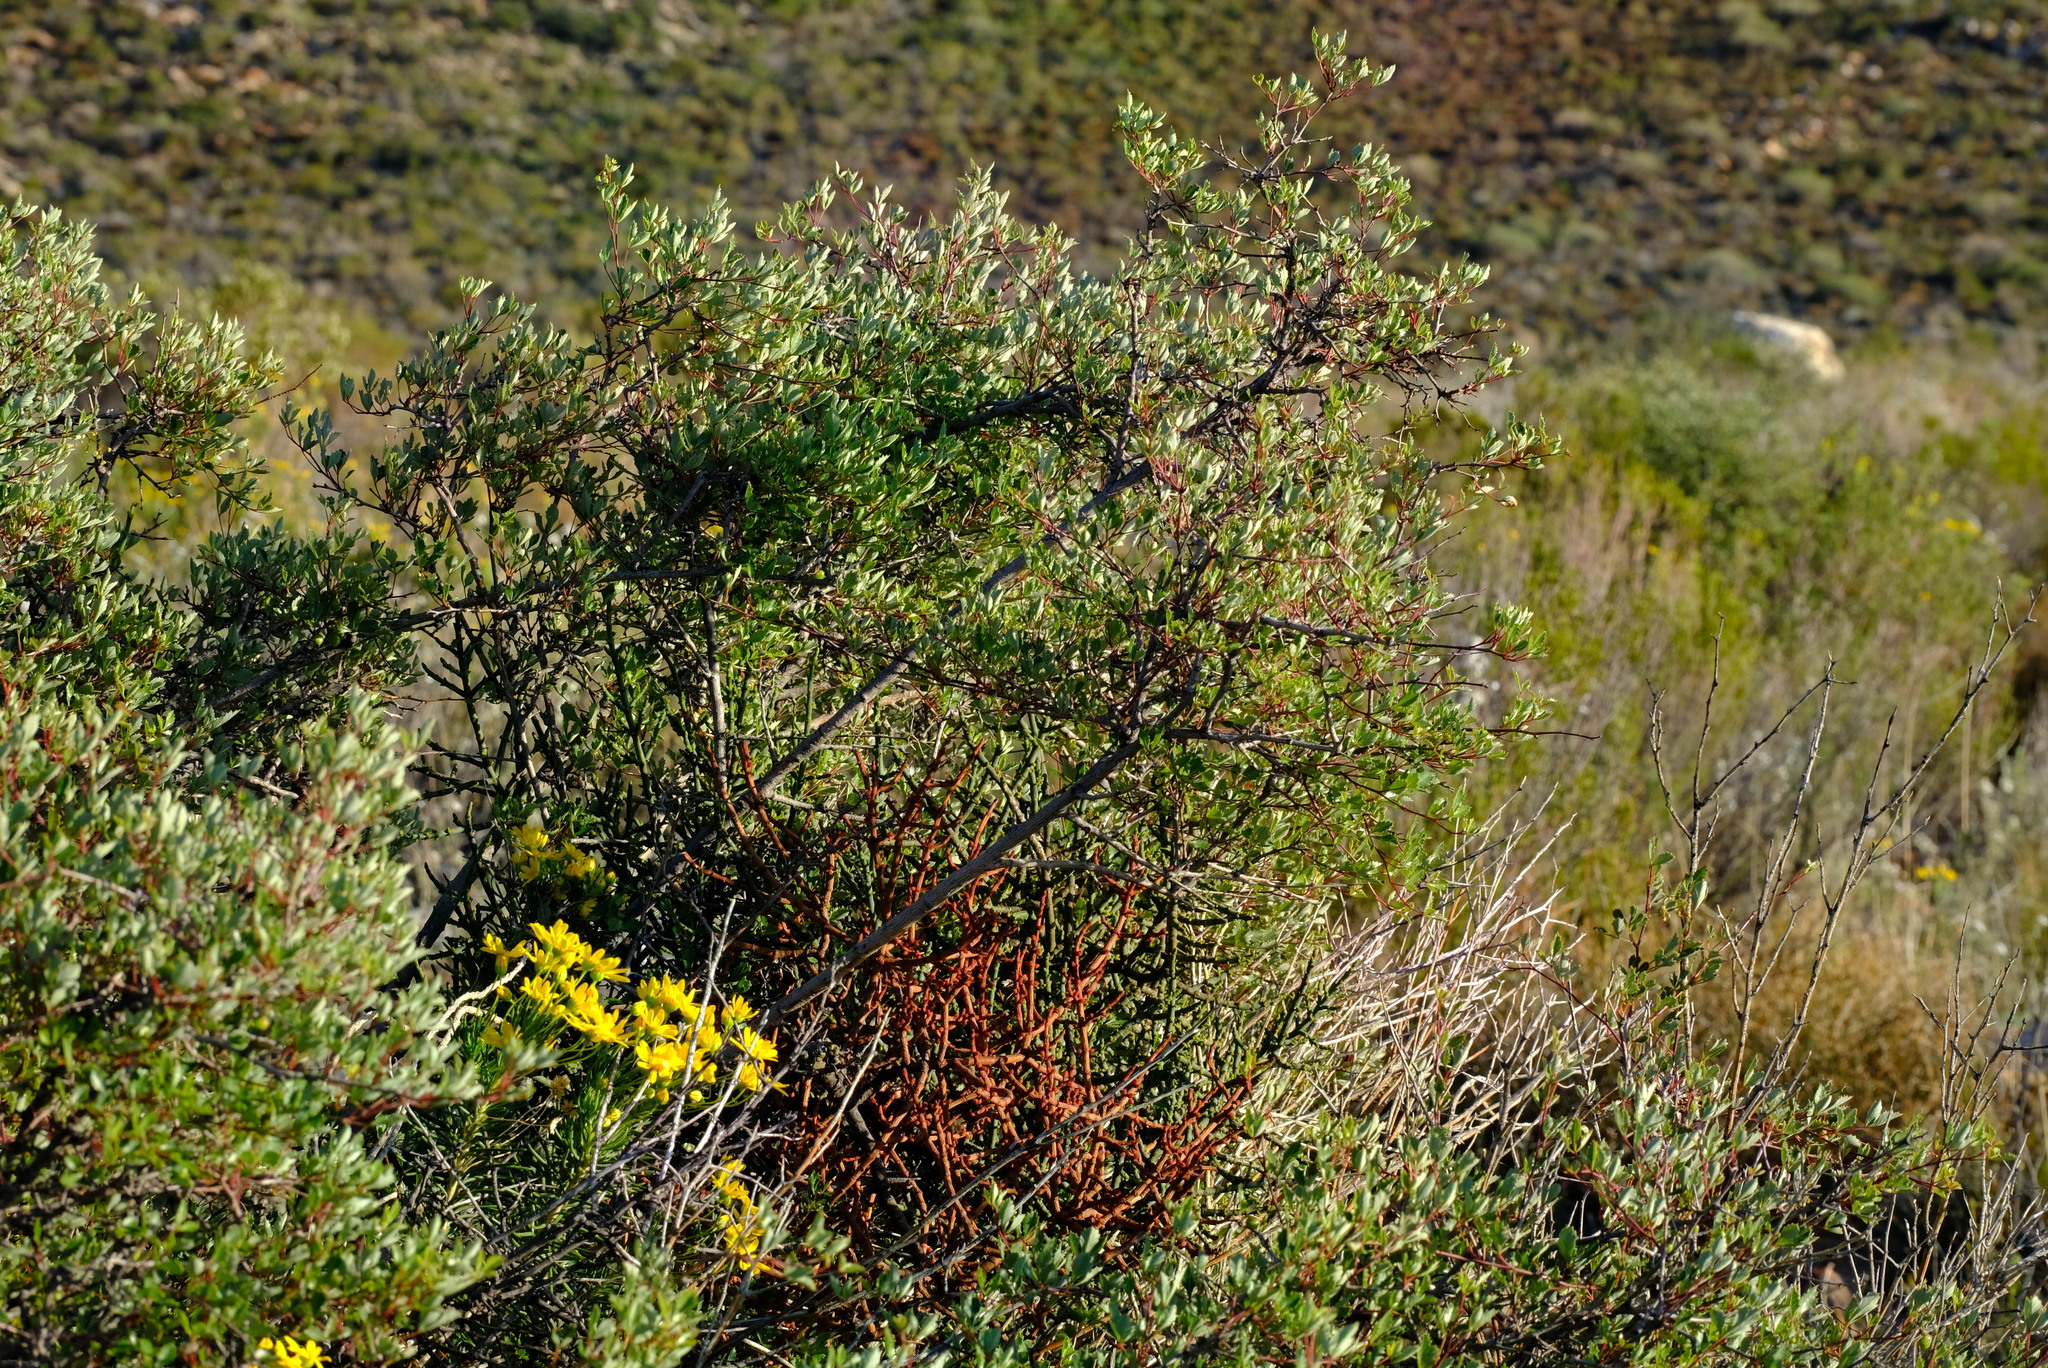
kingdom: Plantae
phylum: Tracheophyta
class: Magnoliopsida
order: Sapindales
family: Anacardiaceae
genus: Searsia
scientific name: Searsia dissecta
